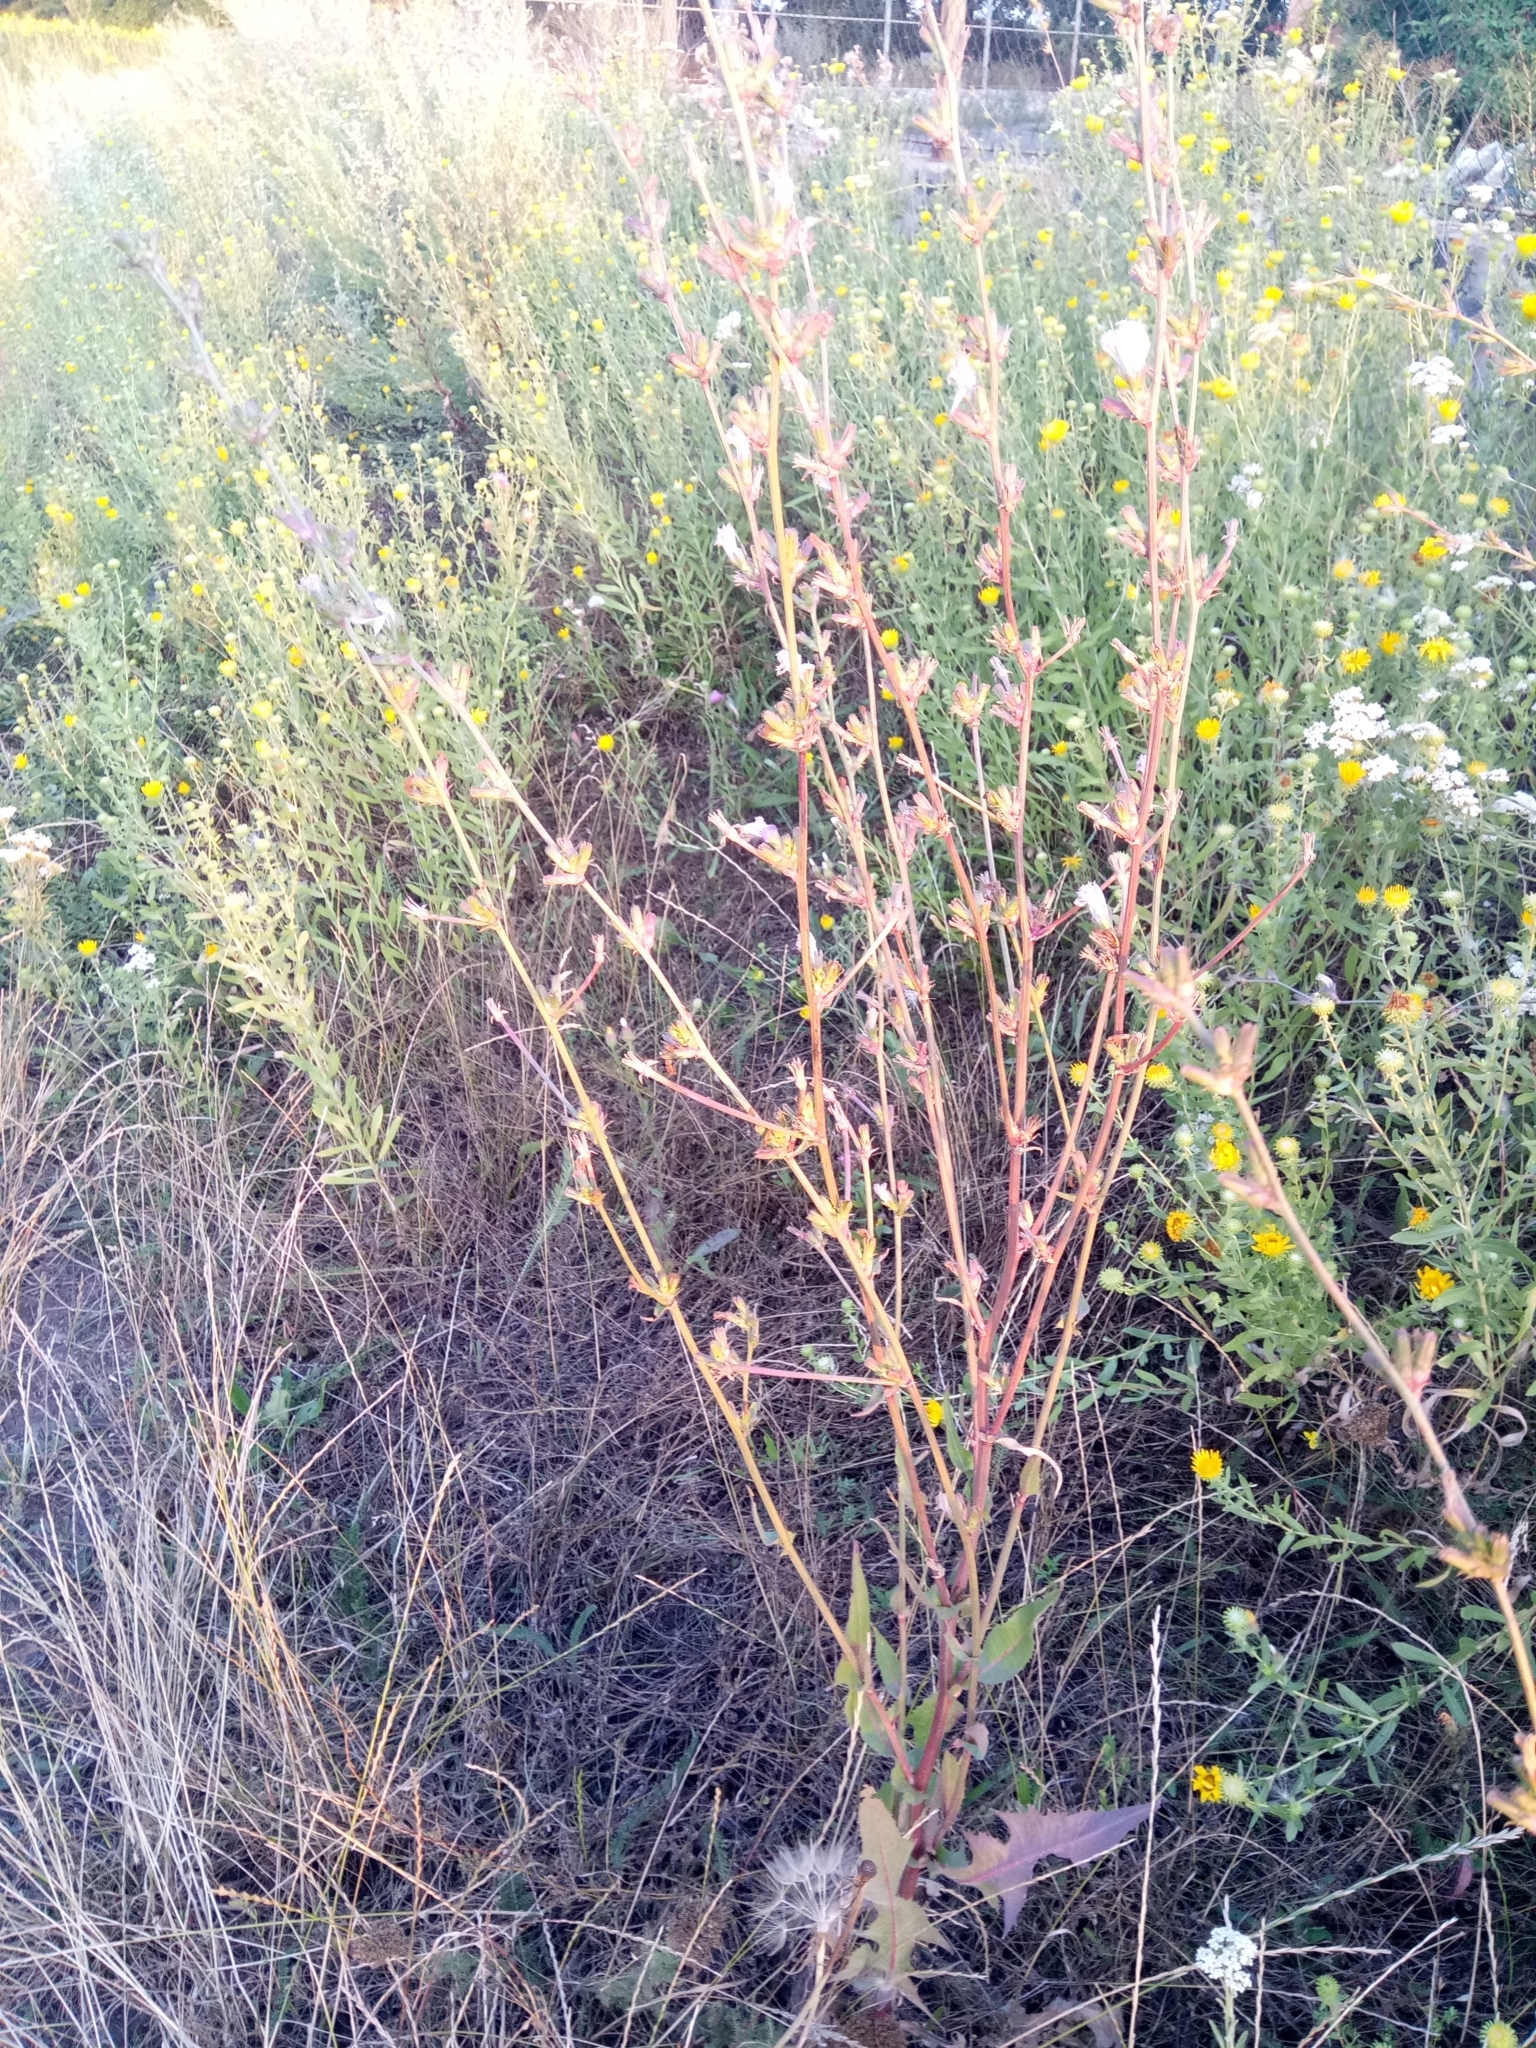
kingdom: Plantae
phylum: Tracheophyta
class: Magnoliopsida
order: Asterales
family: Asteraceae
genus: Cichorium
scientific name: Cichorium intybus
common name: Chicory
